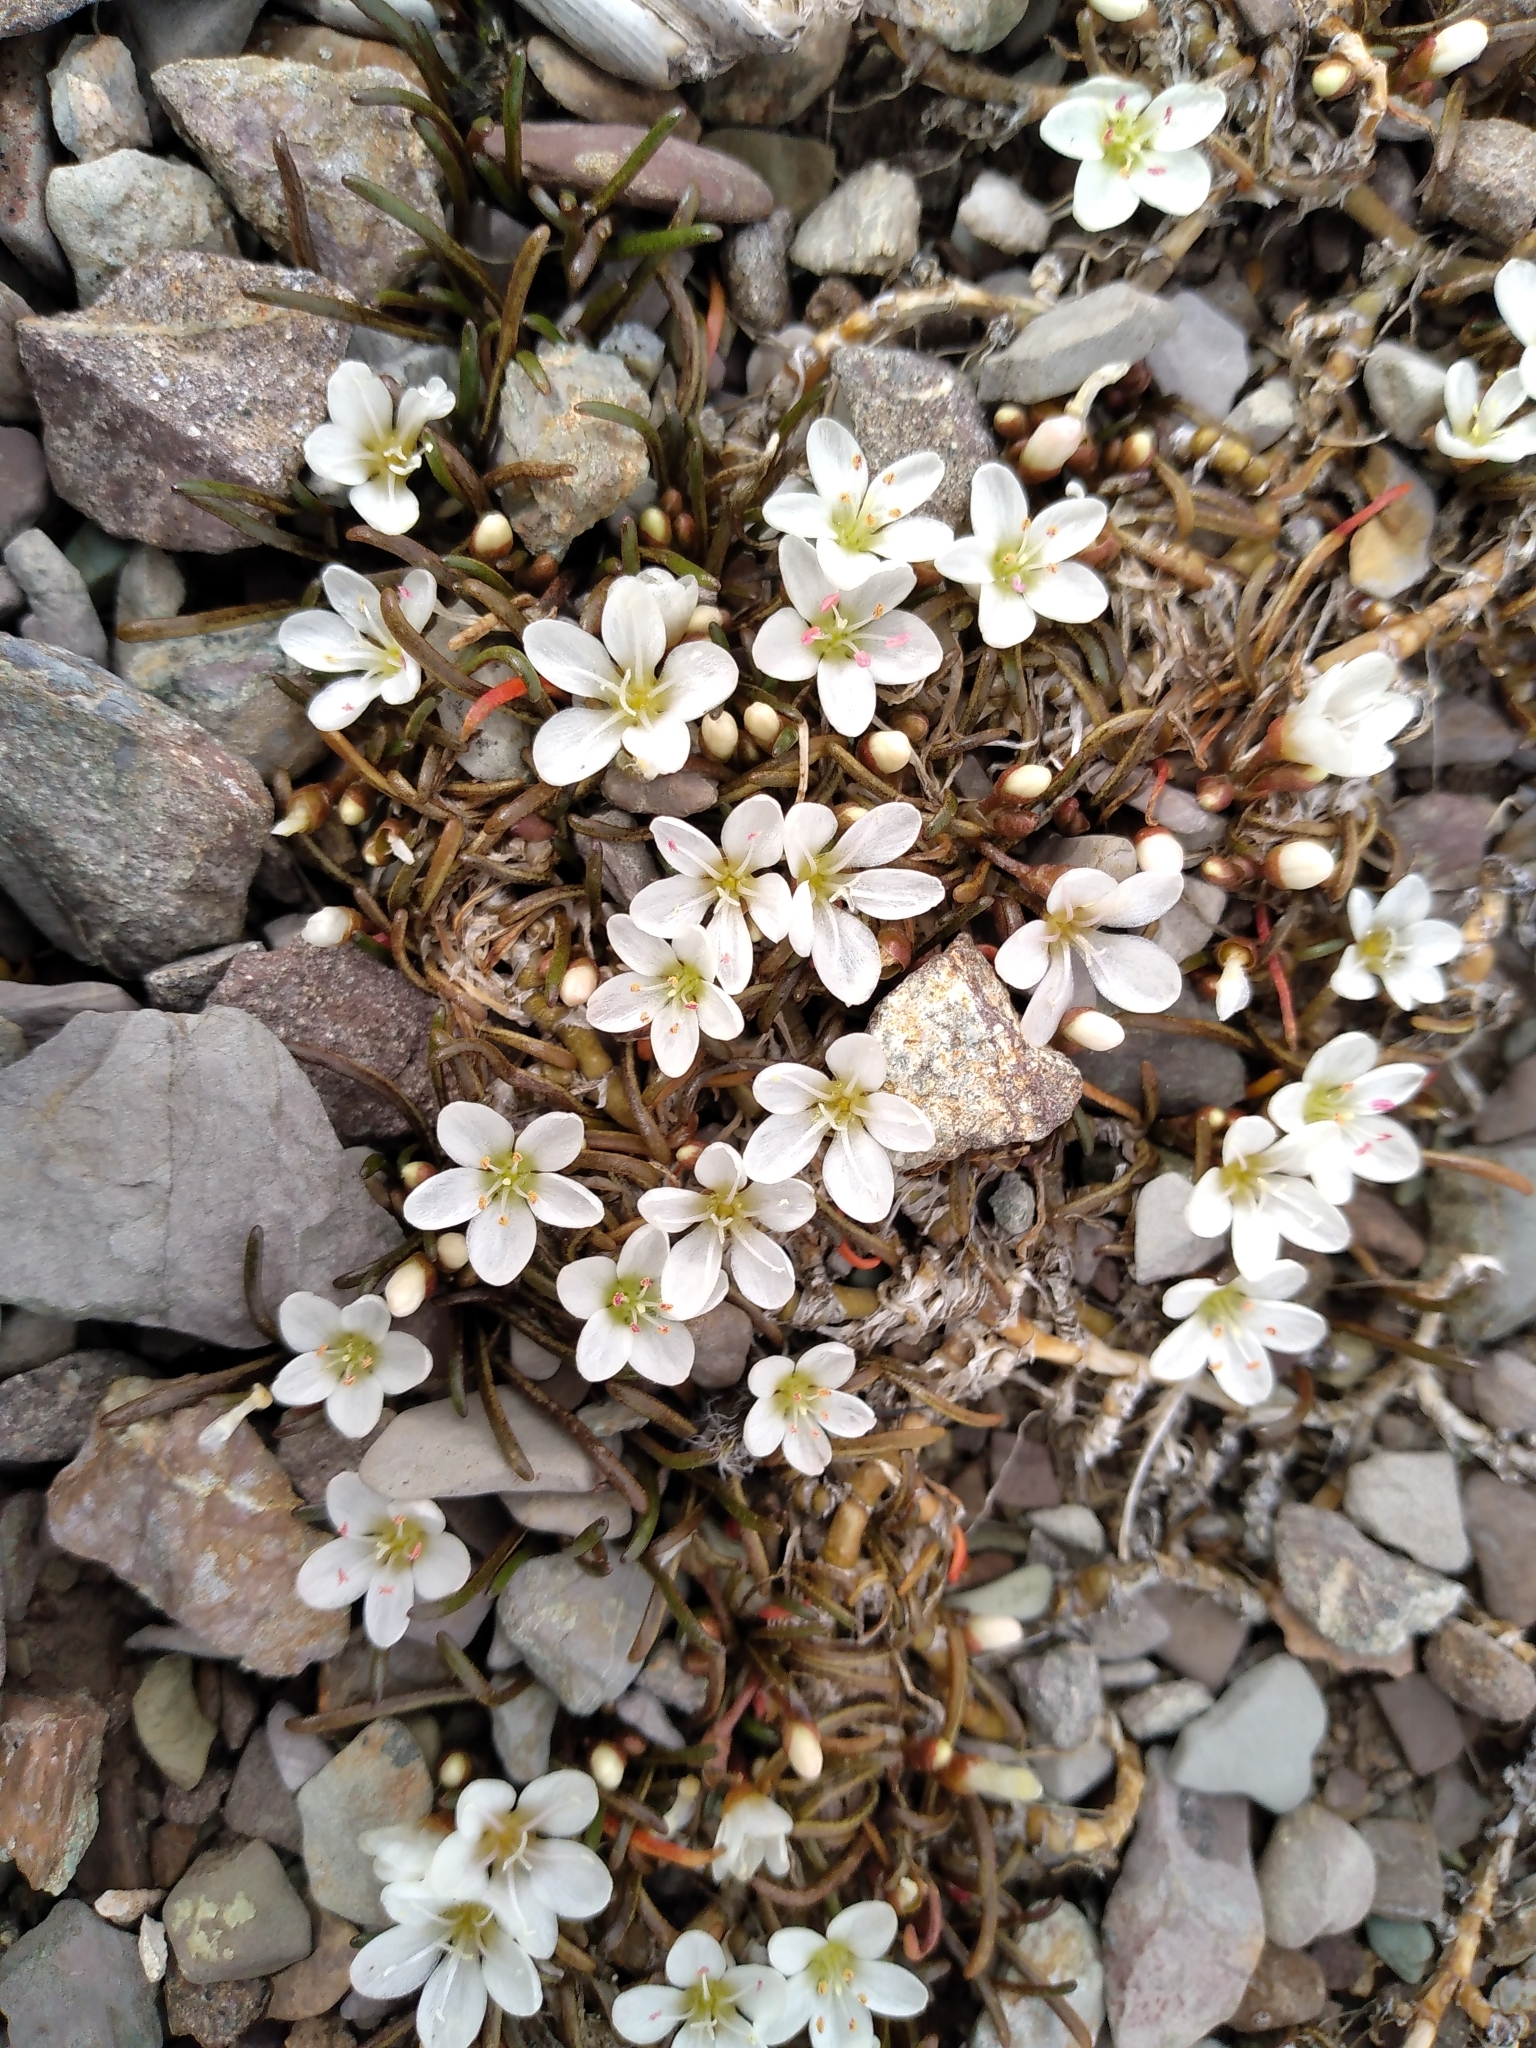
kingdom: Plantae
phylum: Tracheophyta
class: Magnoliopsida
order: Caryophyllales
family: Montiaceae
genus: Montia
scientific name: Montia calycina
